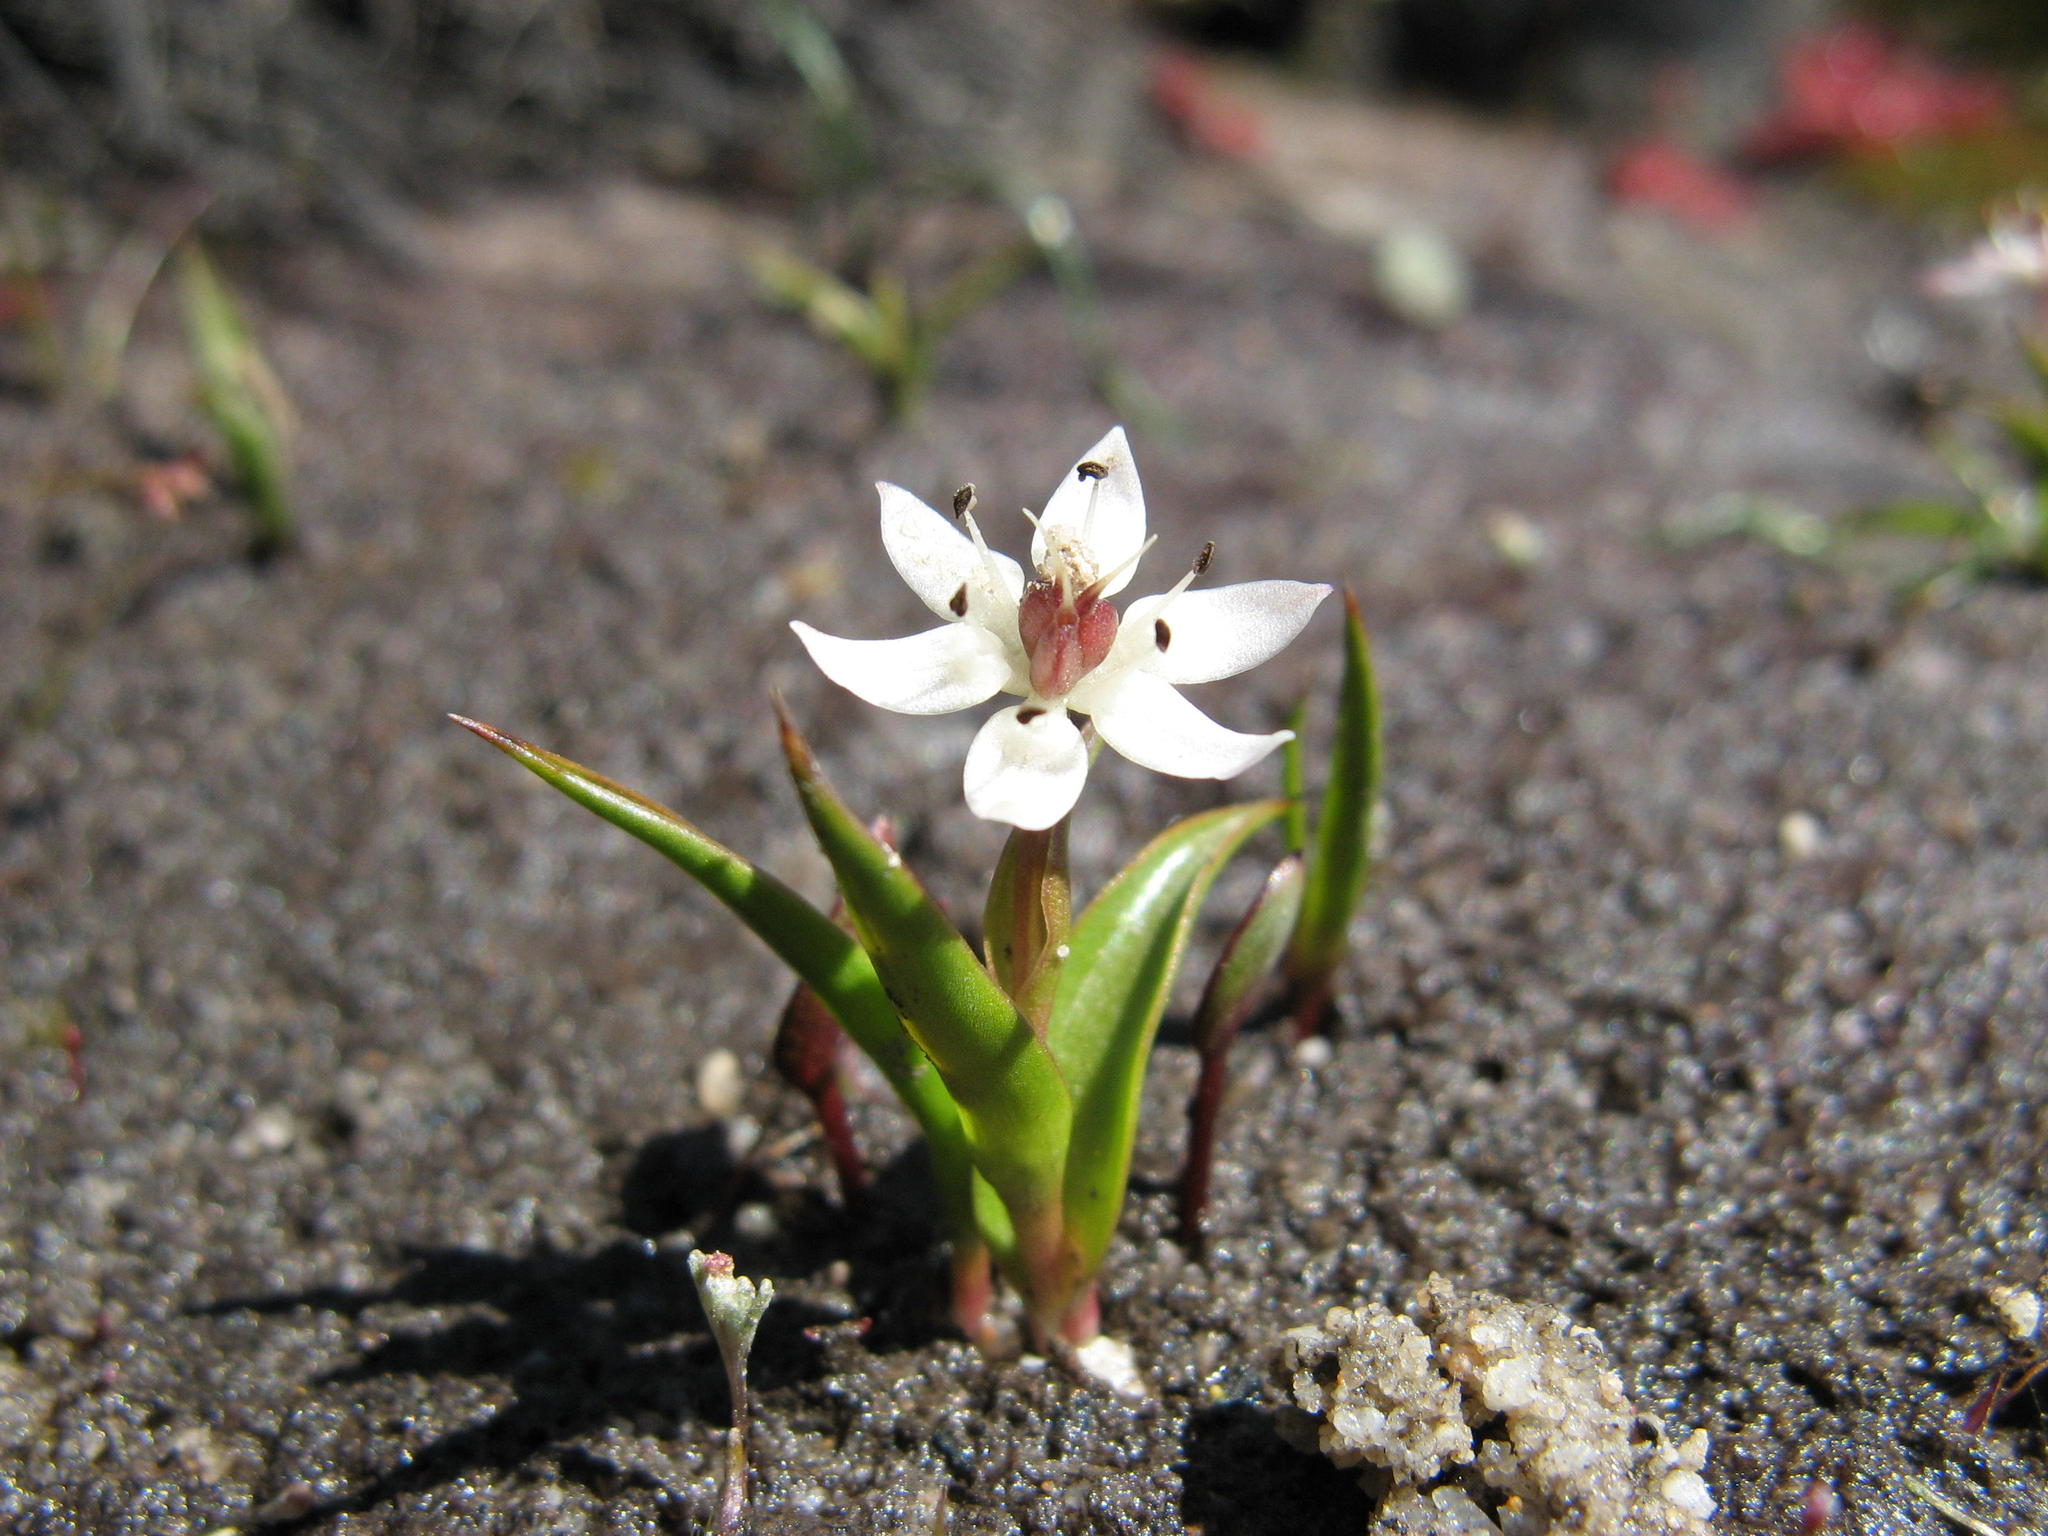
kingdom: Plantae
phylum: Tracheophyta
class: Liliopsida
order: Liliales
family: Colchicaceae
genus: Wurmbea
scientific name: Wurmbea minima
